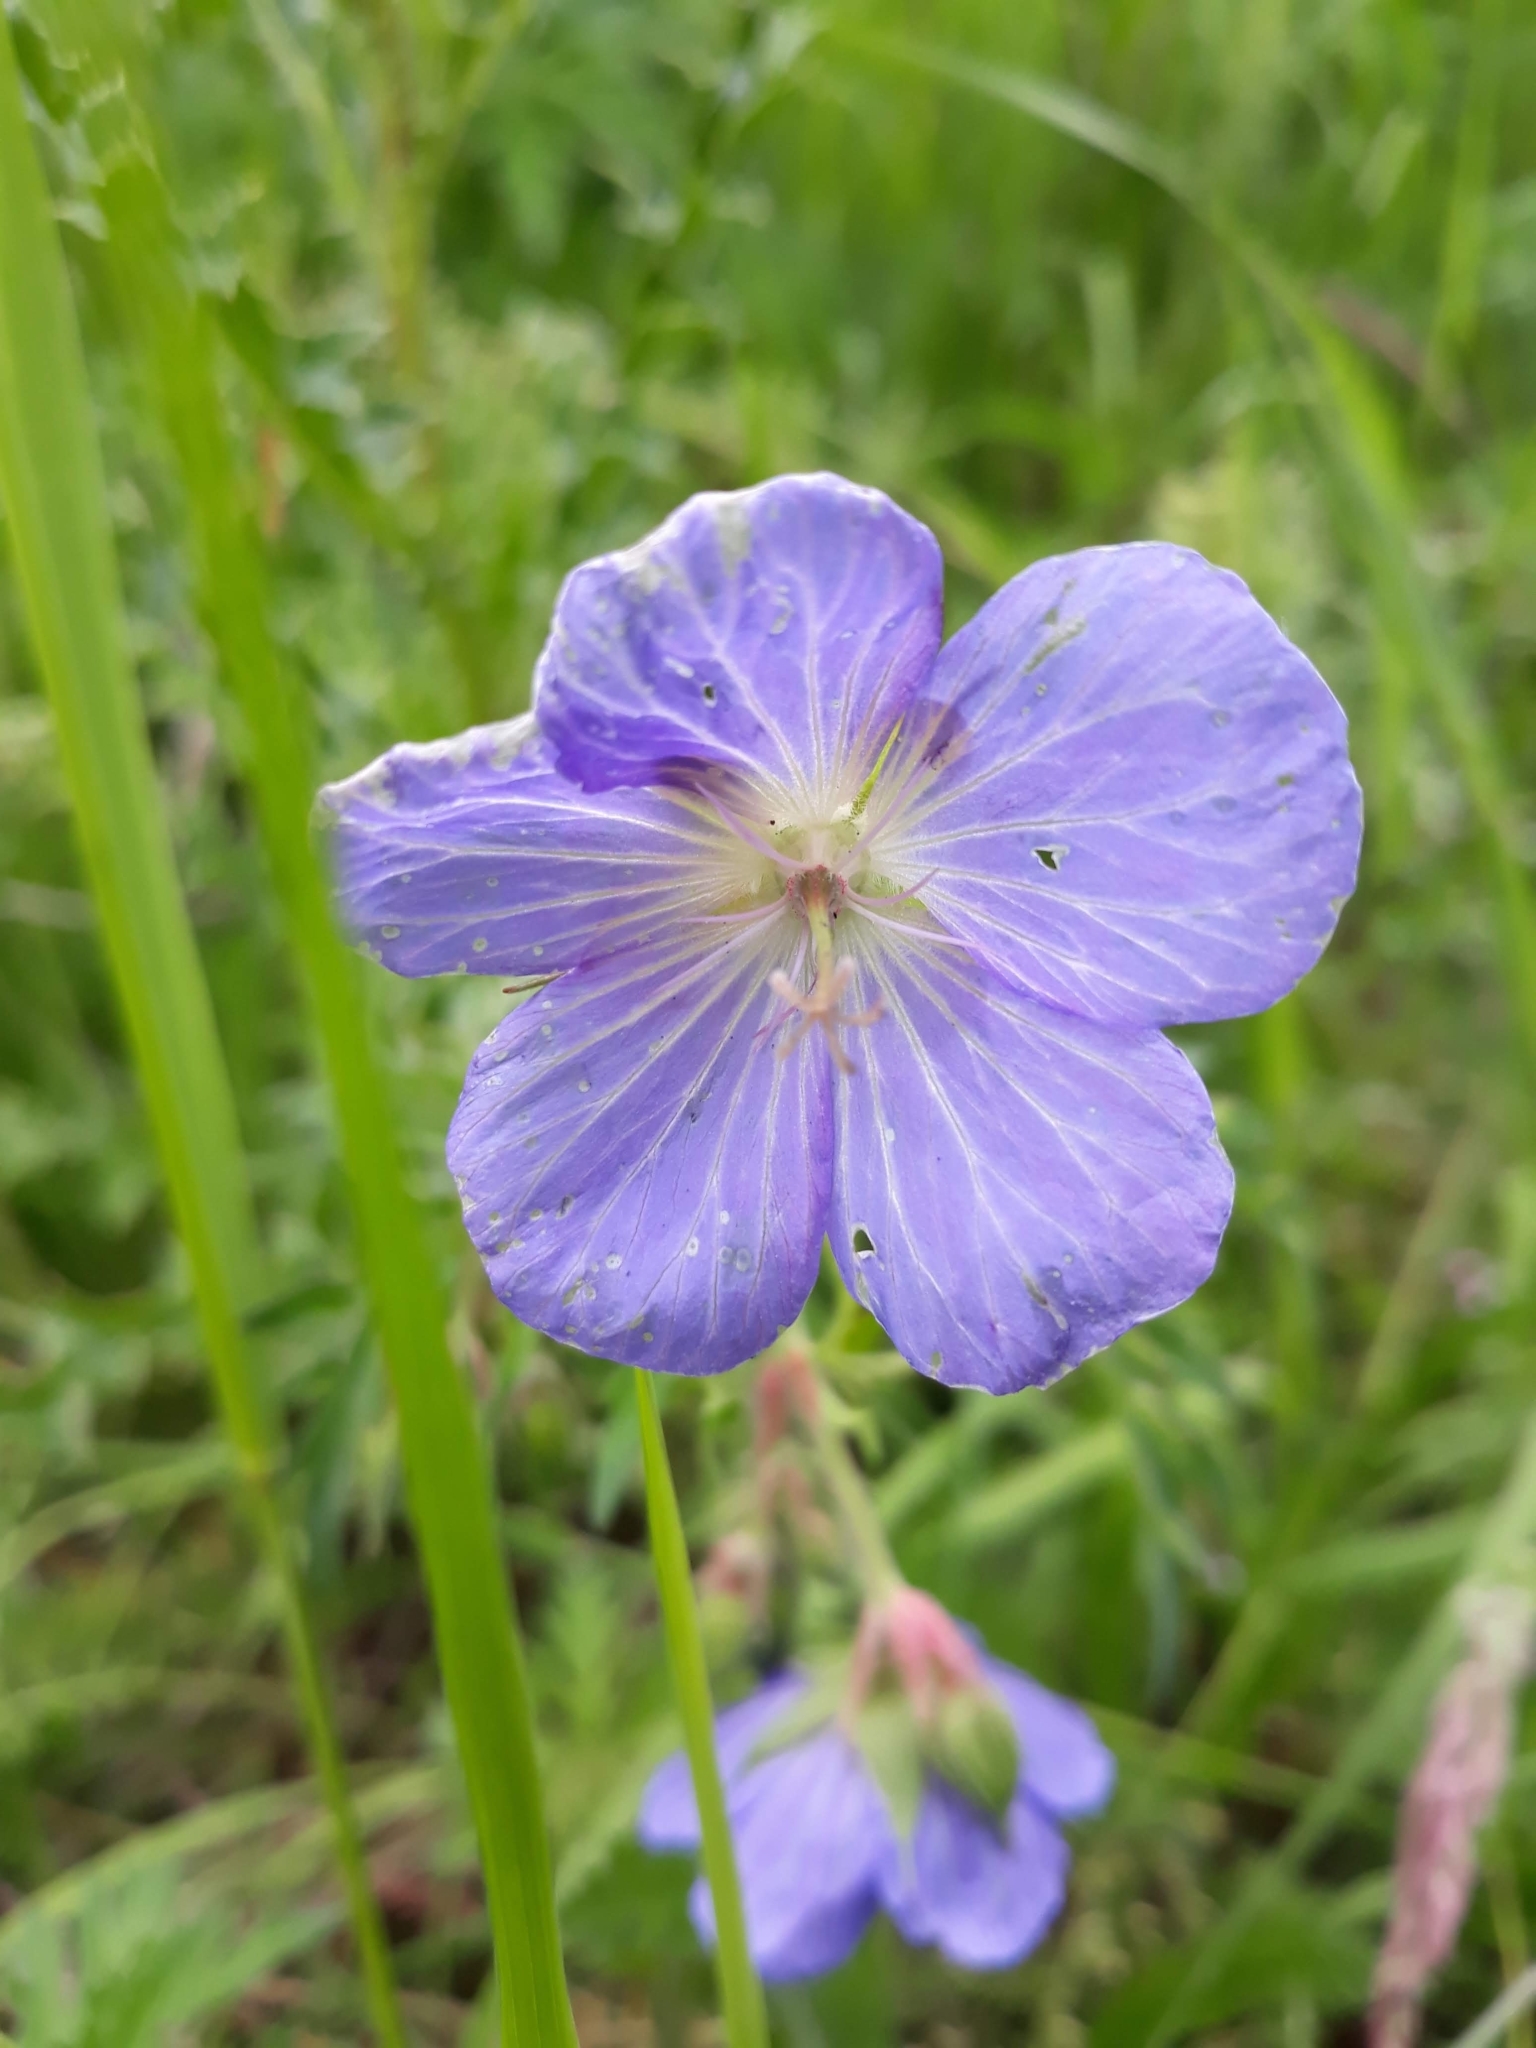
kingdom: Plantae
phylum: Tracheophyta
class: Magnoliopsida
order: Geraniales
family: Geraniaceae
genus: Geranium
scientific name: Geranium pratense
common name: Meadow crane's-bill
